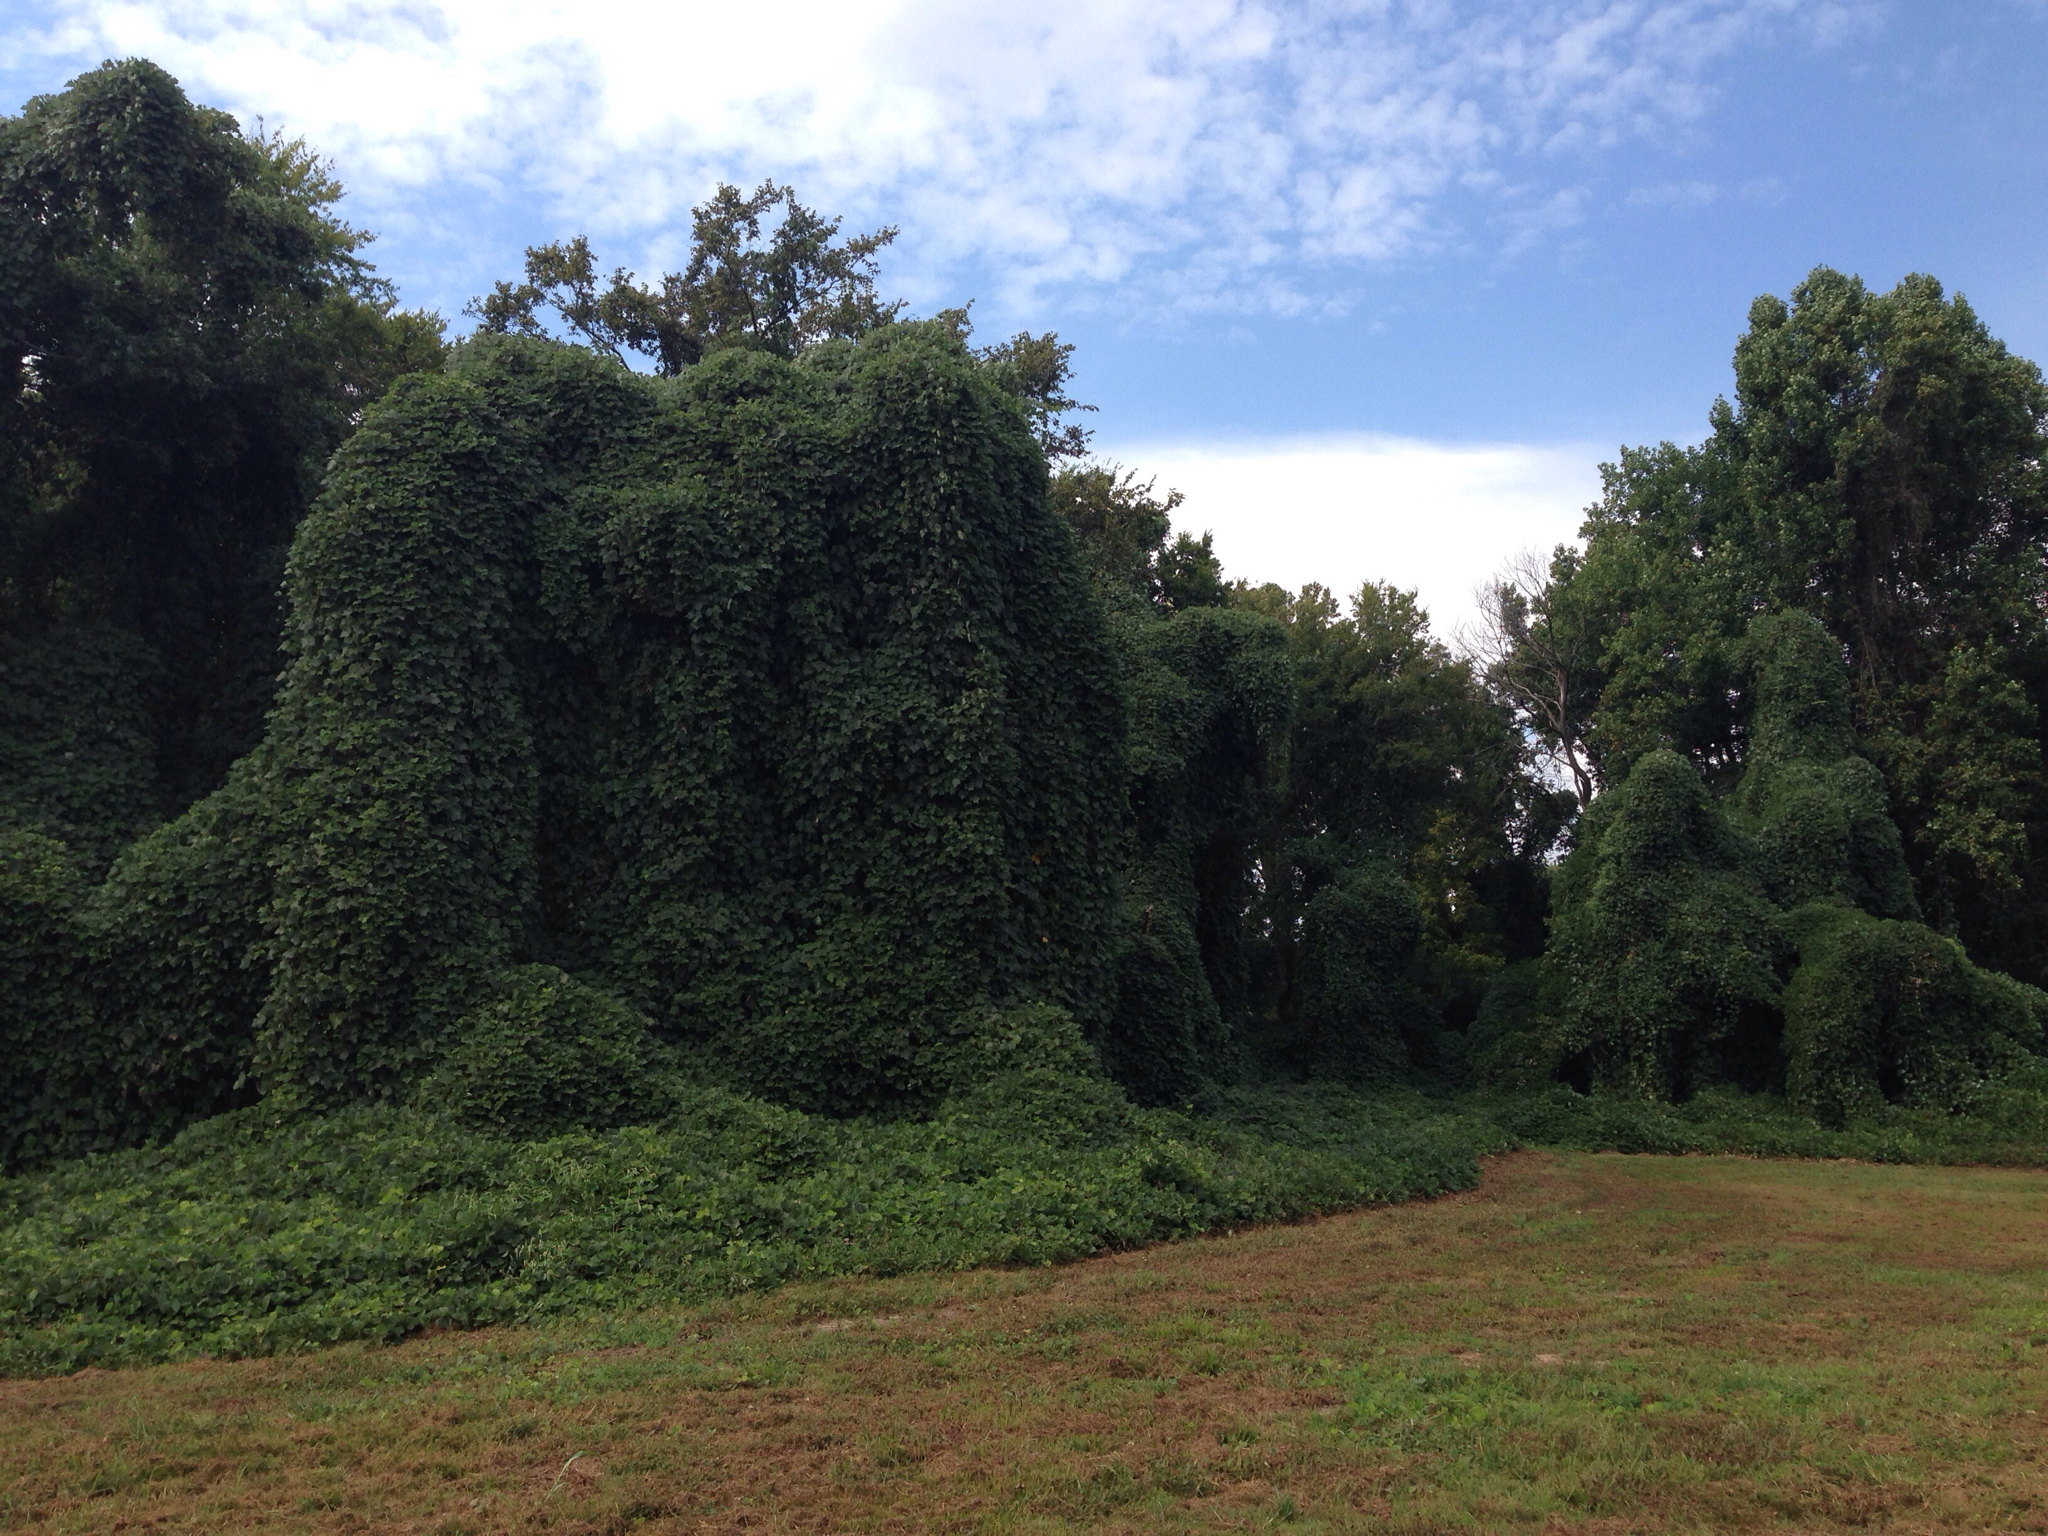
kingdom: Plantae
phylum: Tracheophyta
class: Magnoliopsida
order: Fabales
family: Fabaceae
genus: Pueraria
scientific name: Pueraria montana
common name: Kudzu
